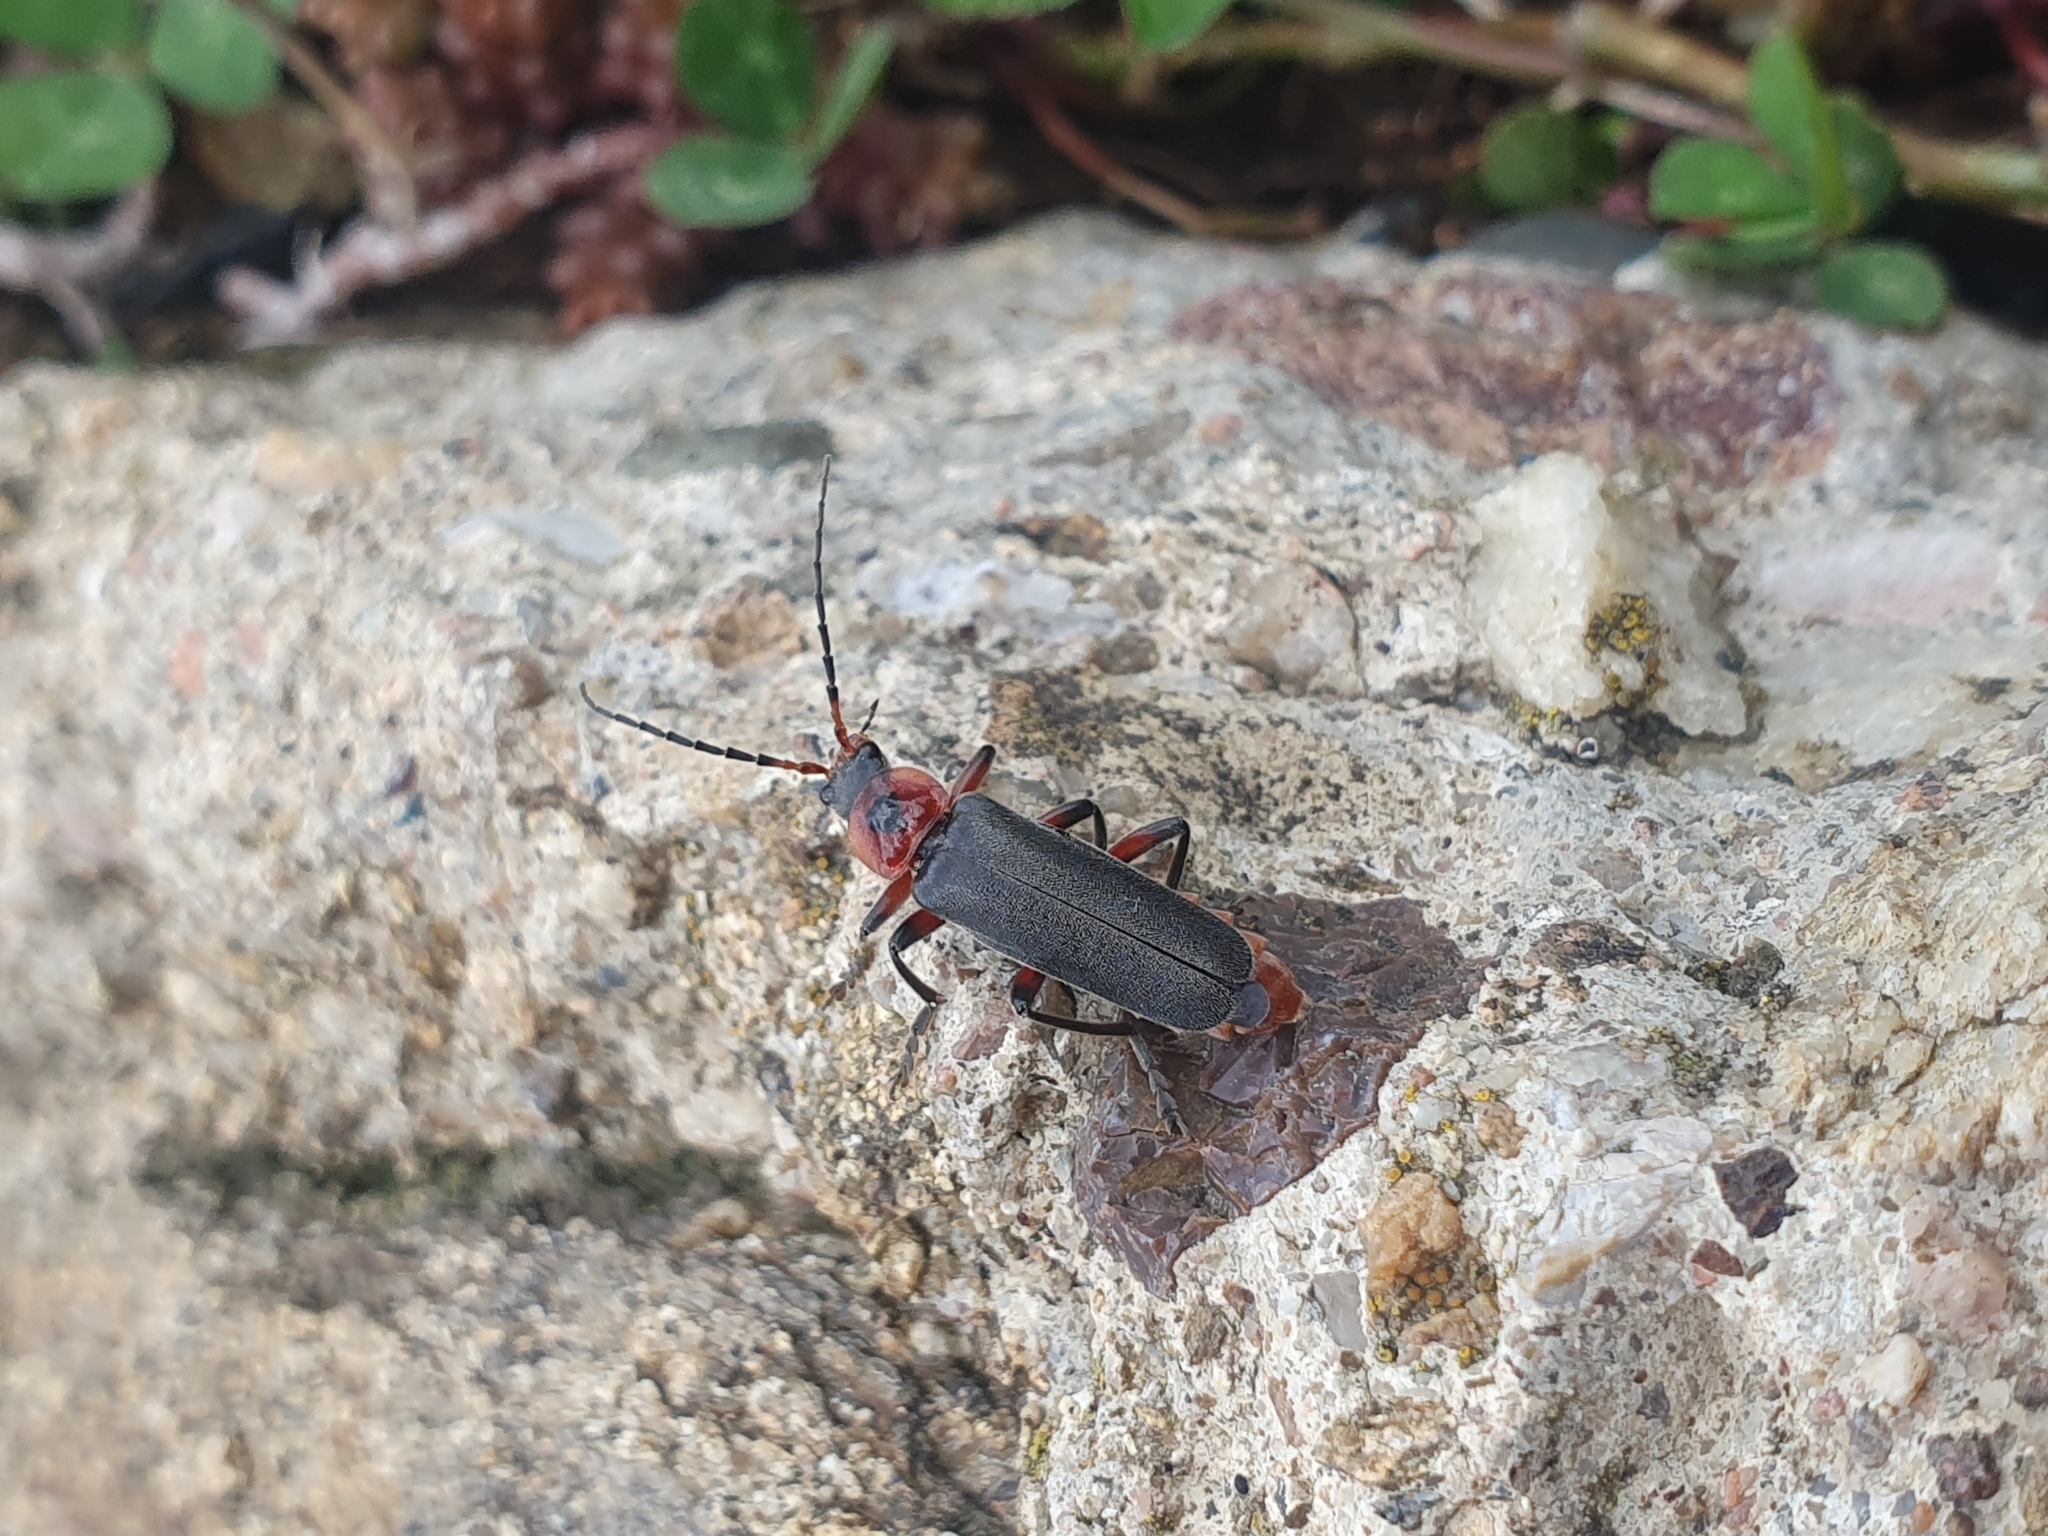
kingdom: Animalia
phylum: Arthropoda
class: Insecta
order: Coleoptera
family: Cantharidae
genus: Cantharis
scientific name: Cantharis rustica
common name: Soldier beetle
